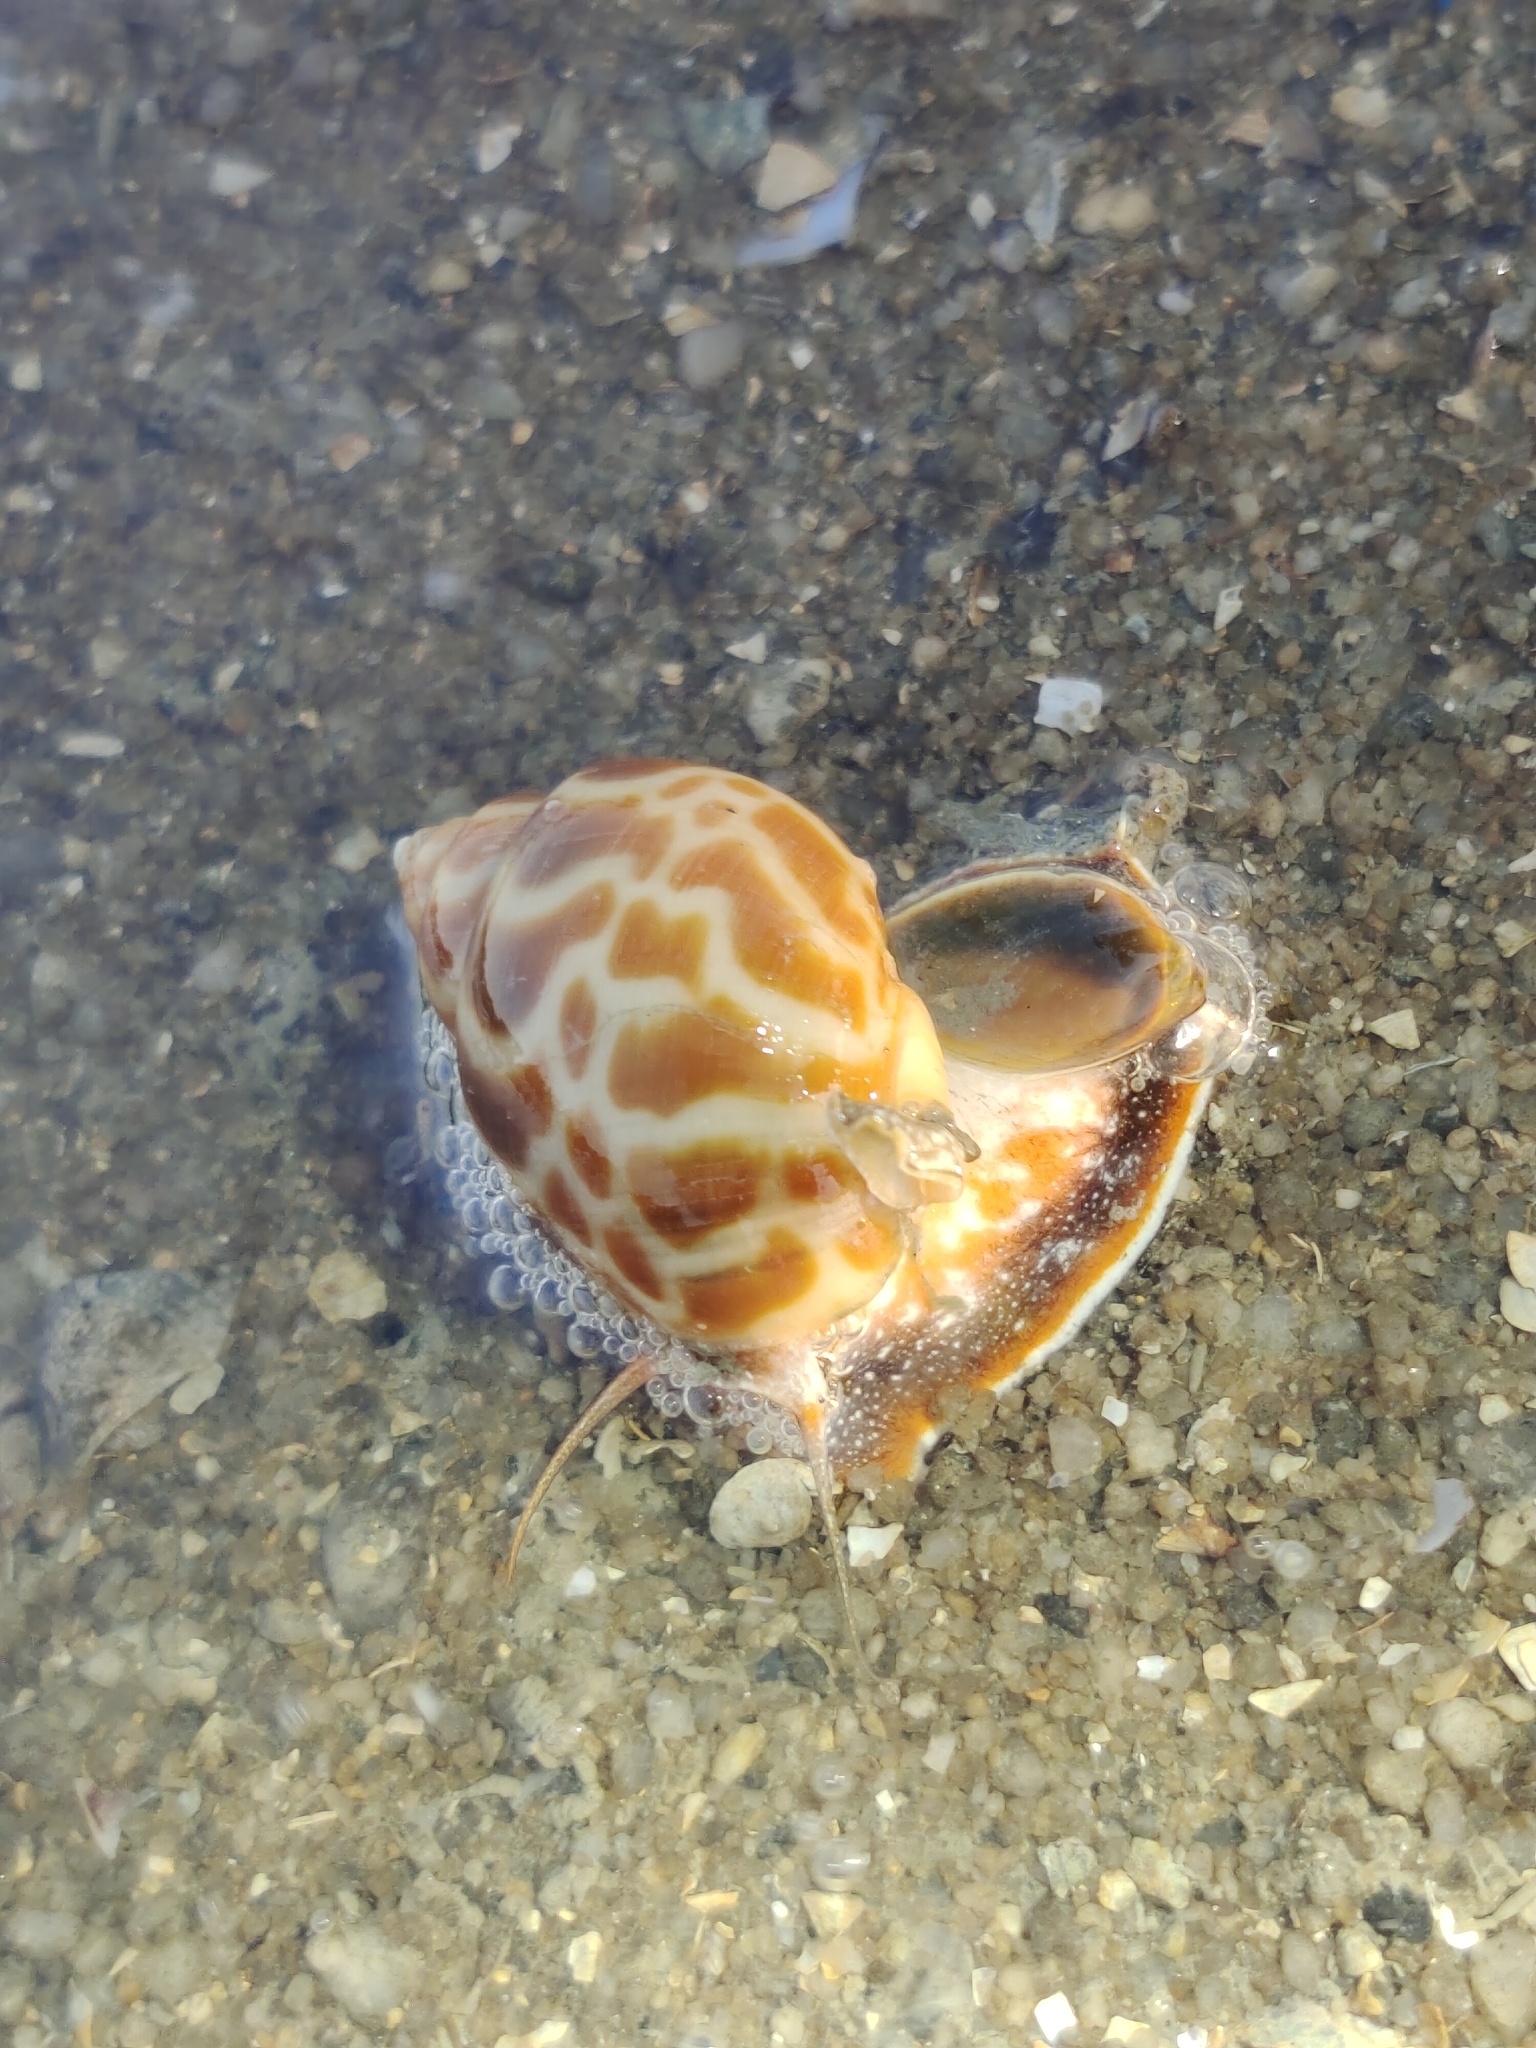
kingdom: Animalia
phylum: Mollusca
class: Gastropoda
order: Neogastropoda
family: Babyloniidae
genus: Babylonia
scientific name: Babylonia spirata
